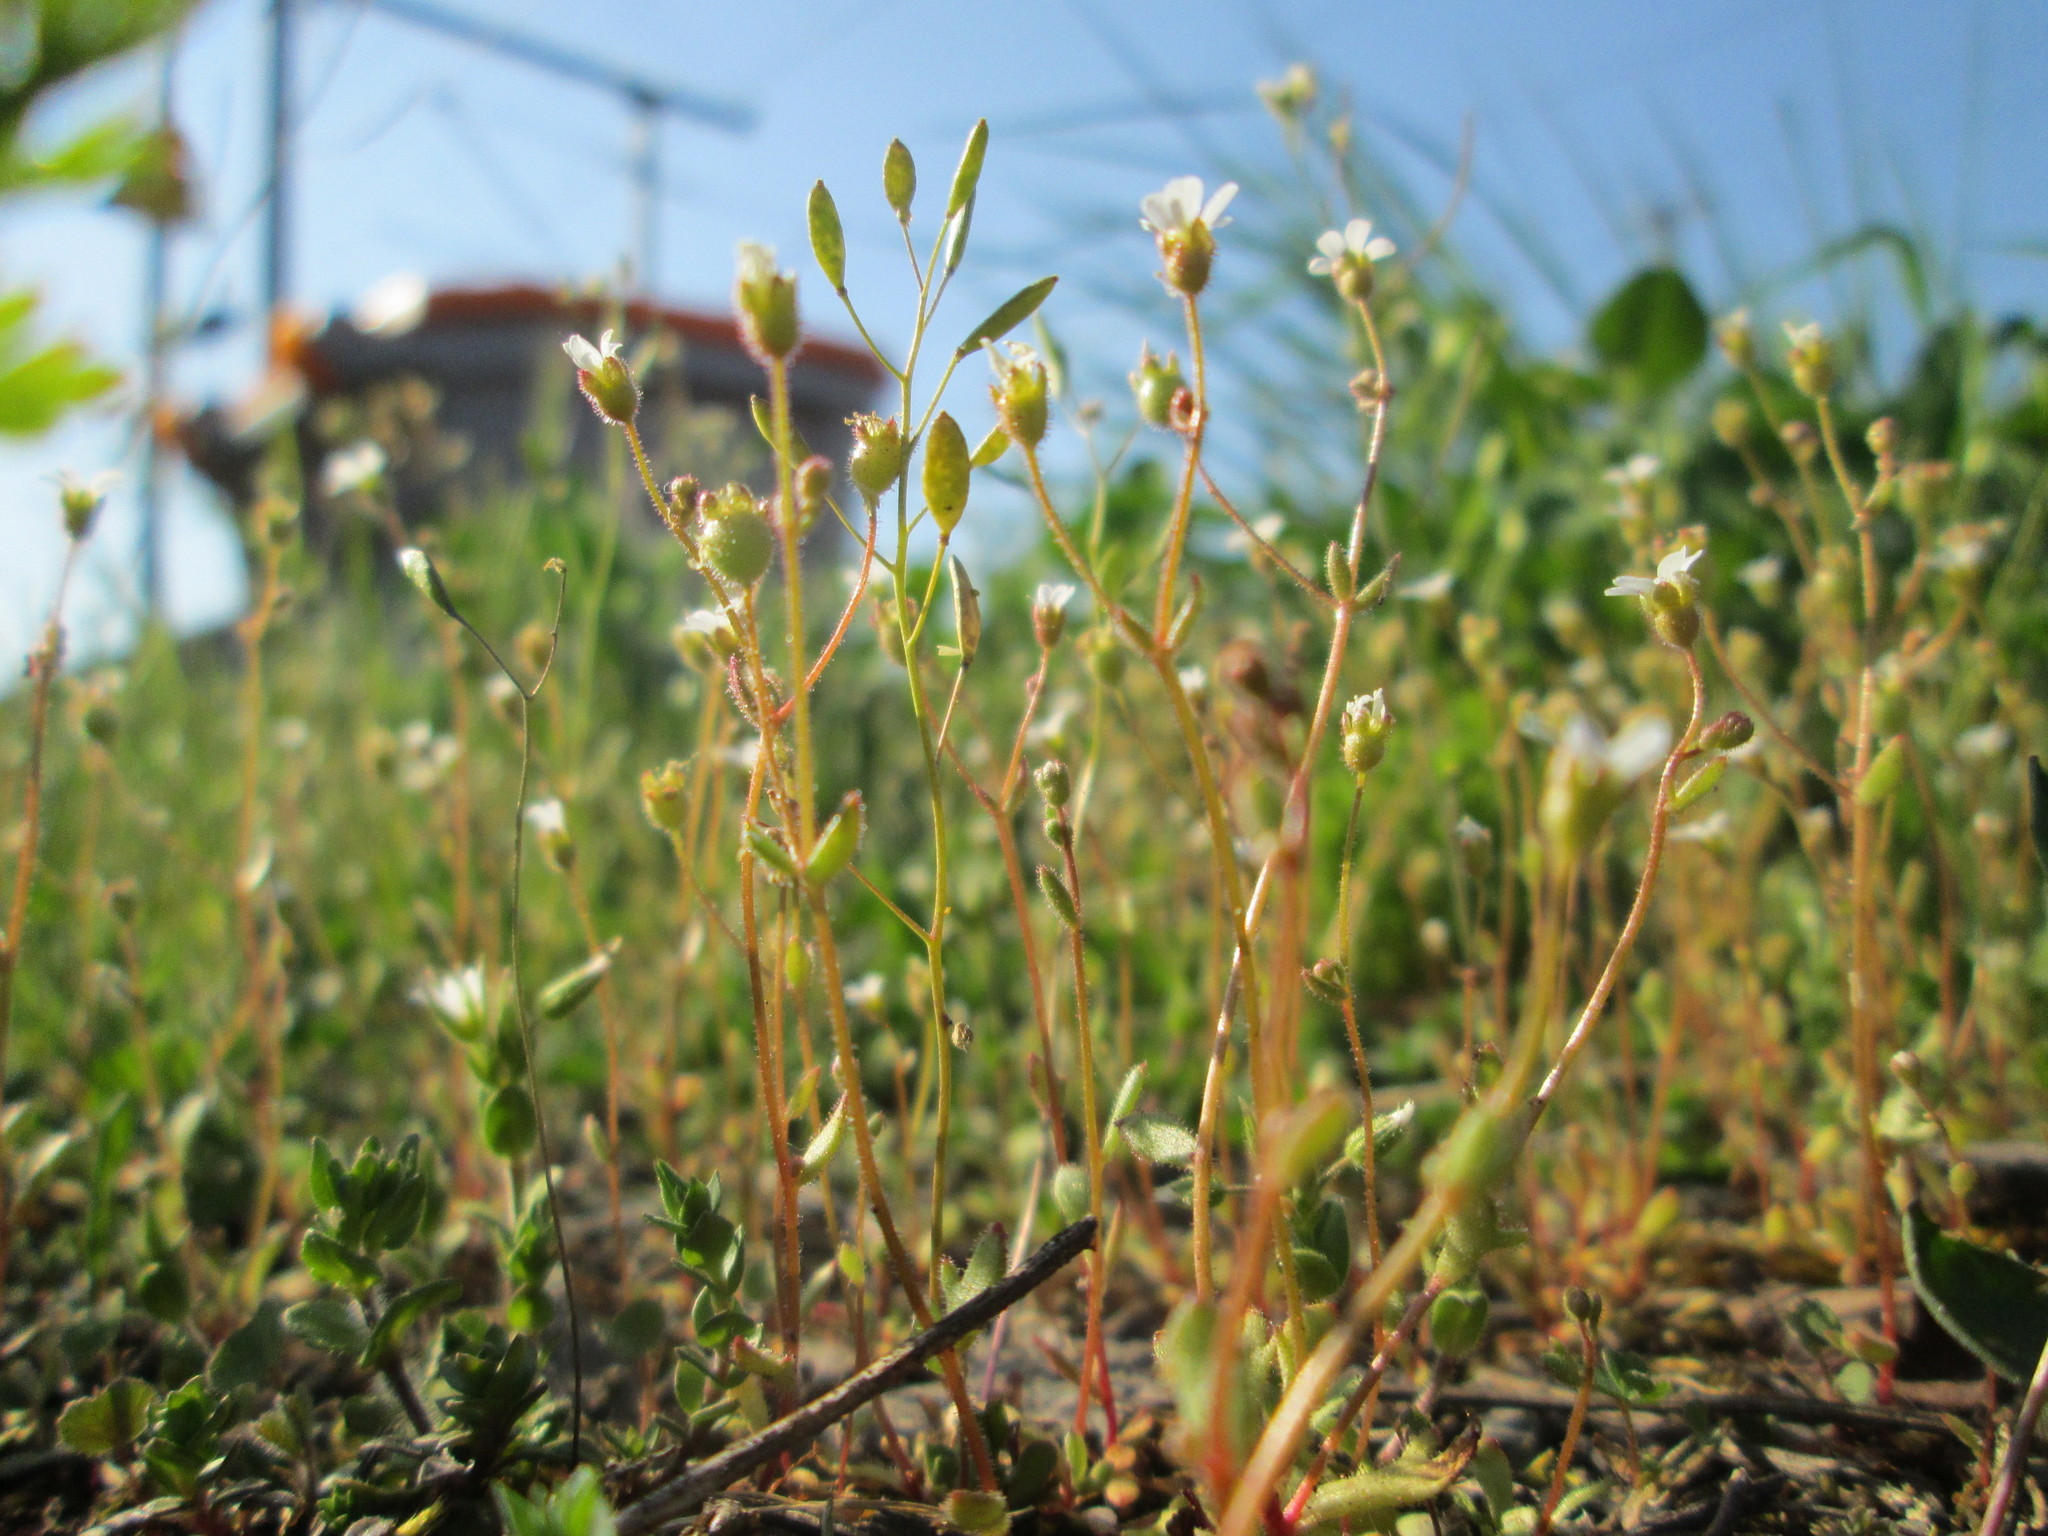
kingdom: Plantae
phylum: Tracheophyta
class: Magnoliopsida
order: Saxifragales
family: Saxifragaceae
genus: Saxifraga
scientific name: Saxifraga tridactylites
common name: Rue-leaved saxifrage
